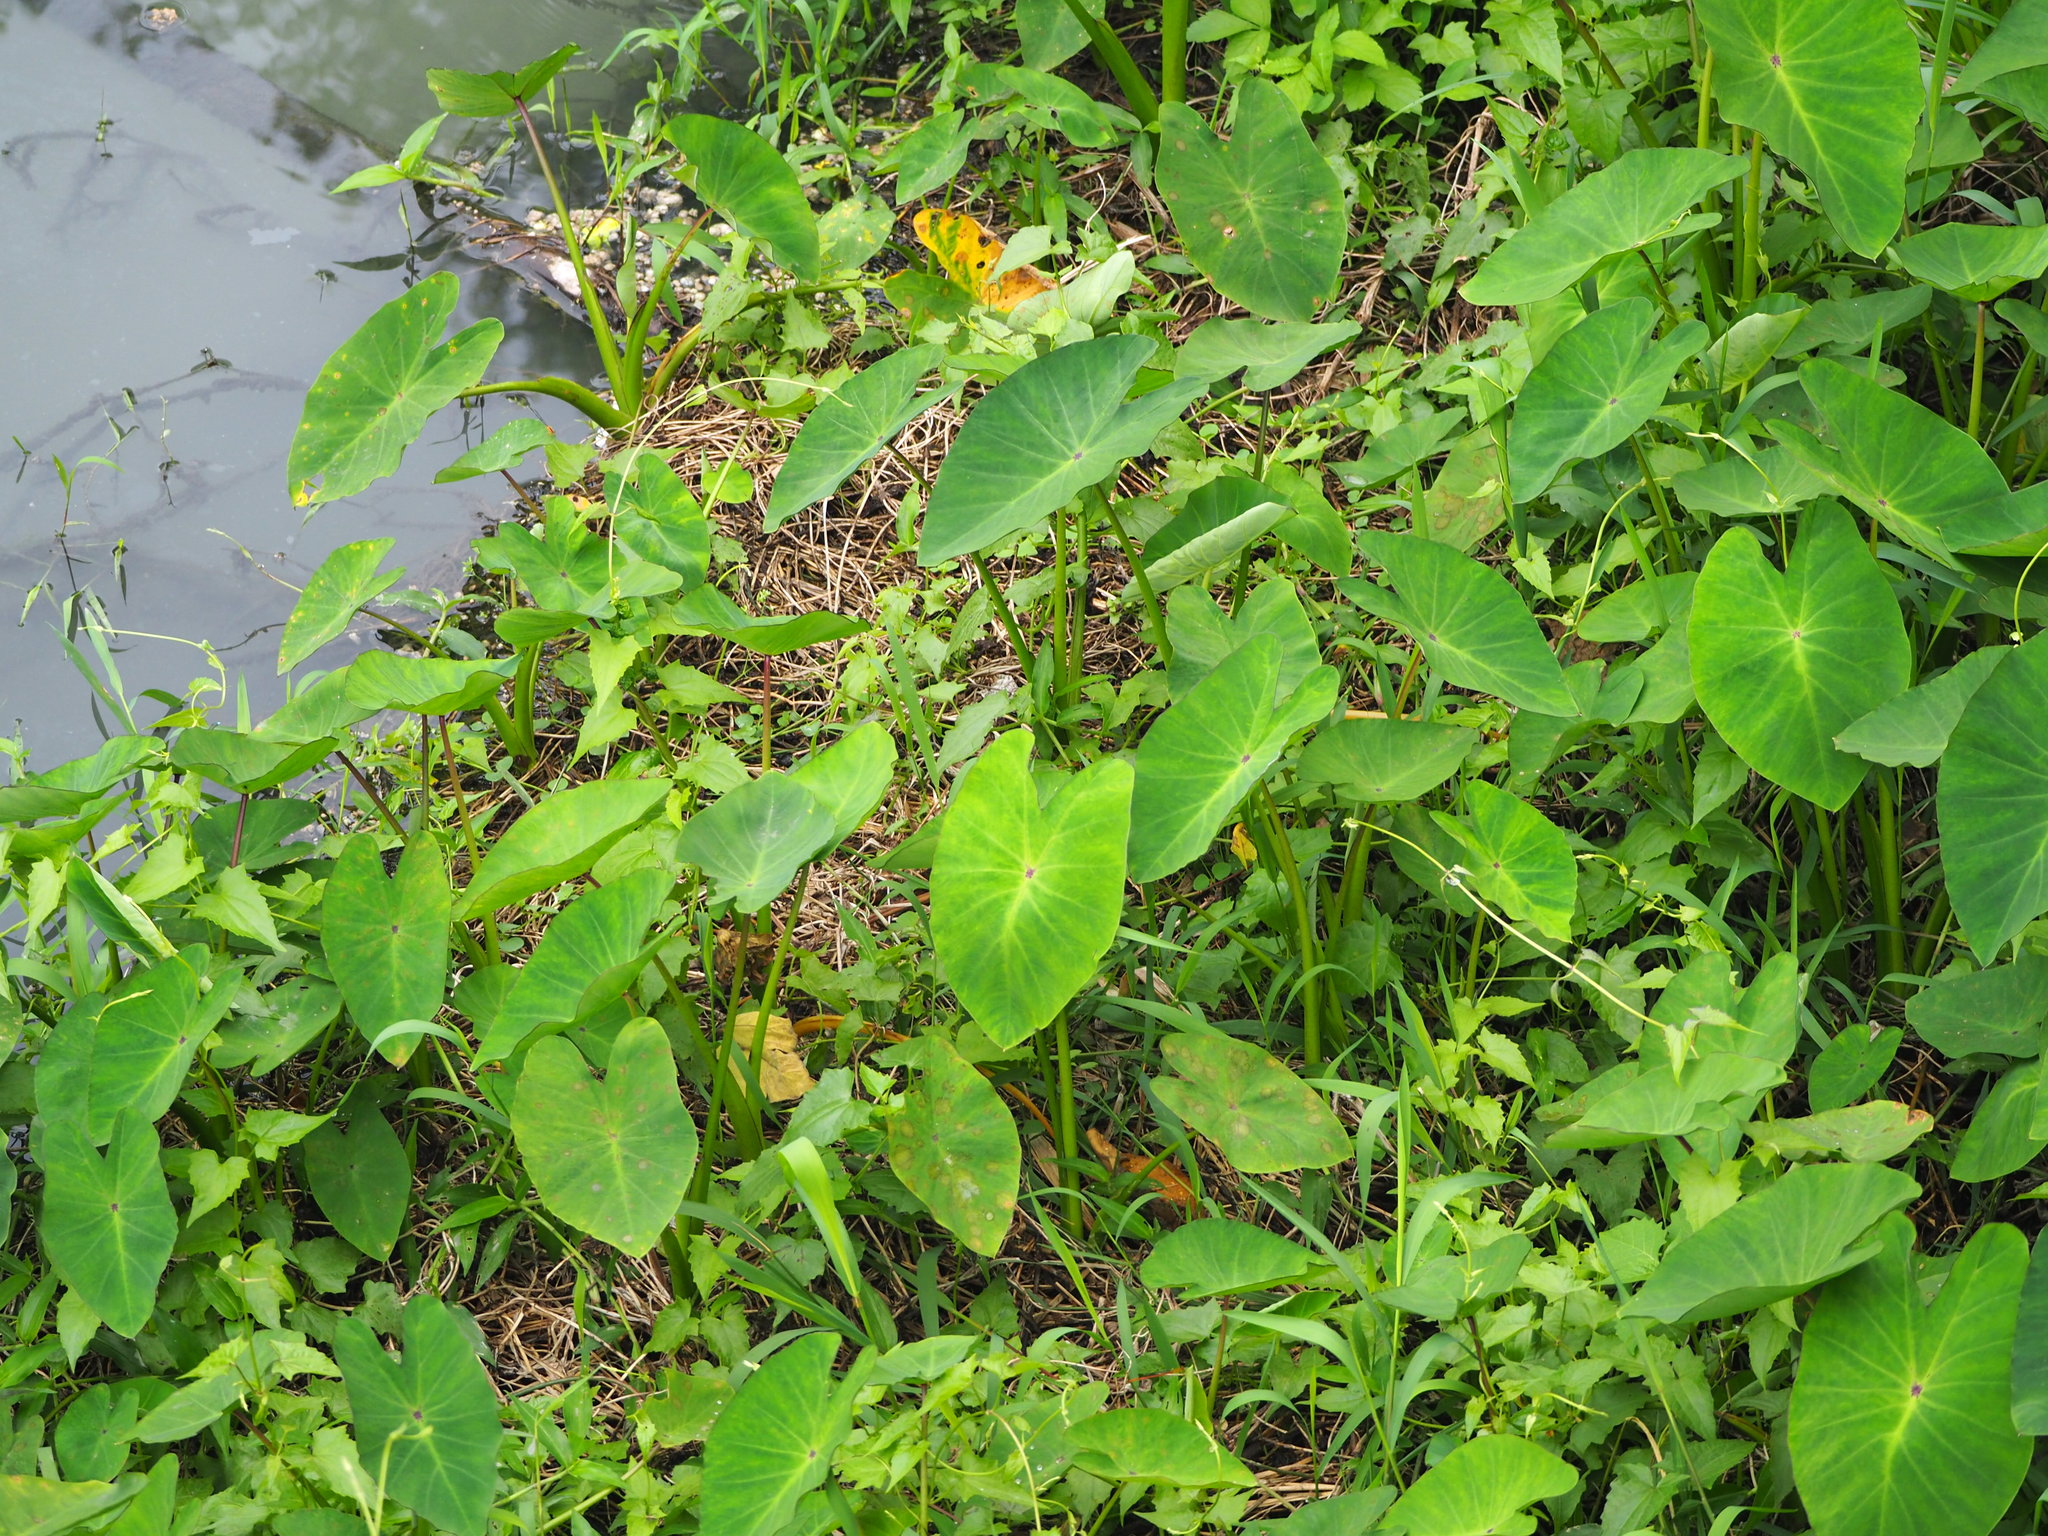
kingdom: Plantae
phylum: Tracheophyta
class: Liliopsida
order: Alismatales
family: Araceae
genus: Colocasia
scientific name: Colocasia esculenta
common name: Taro
